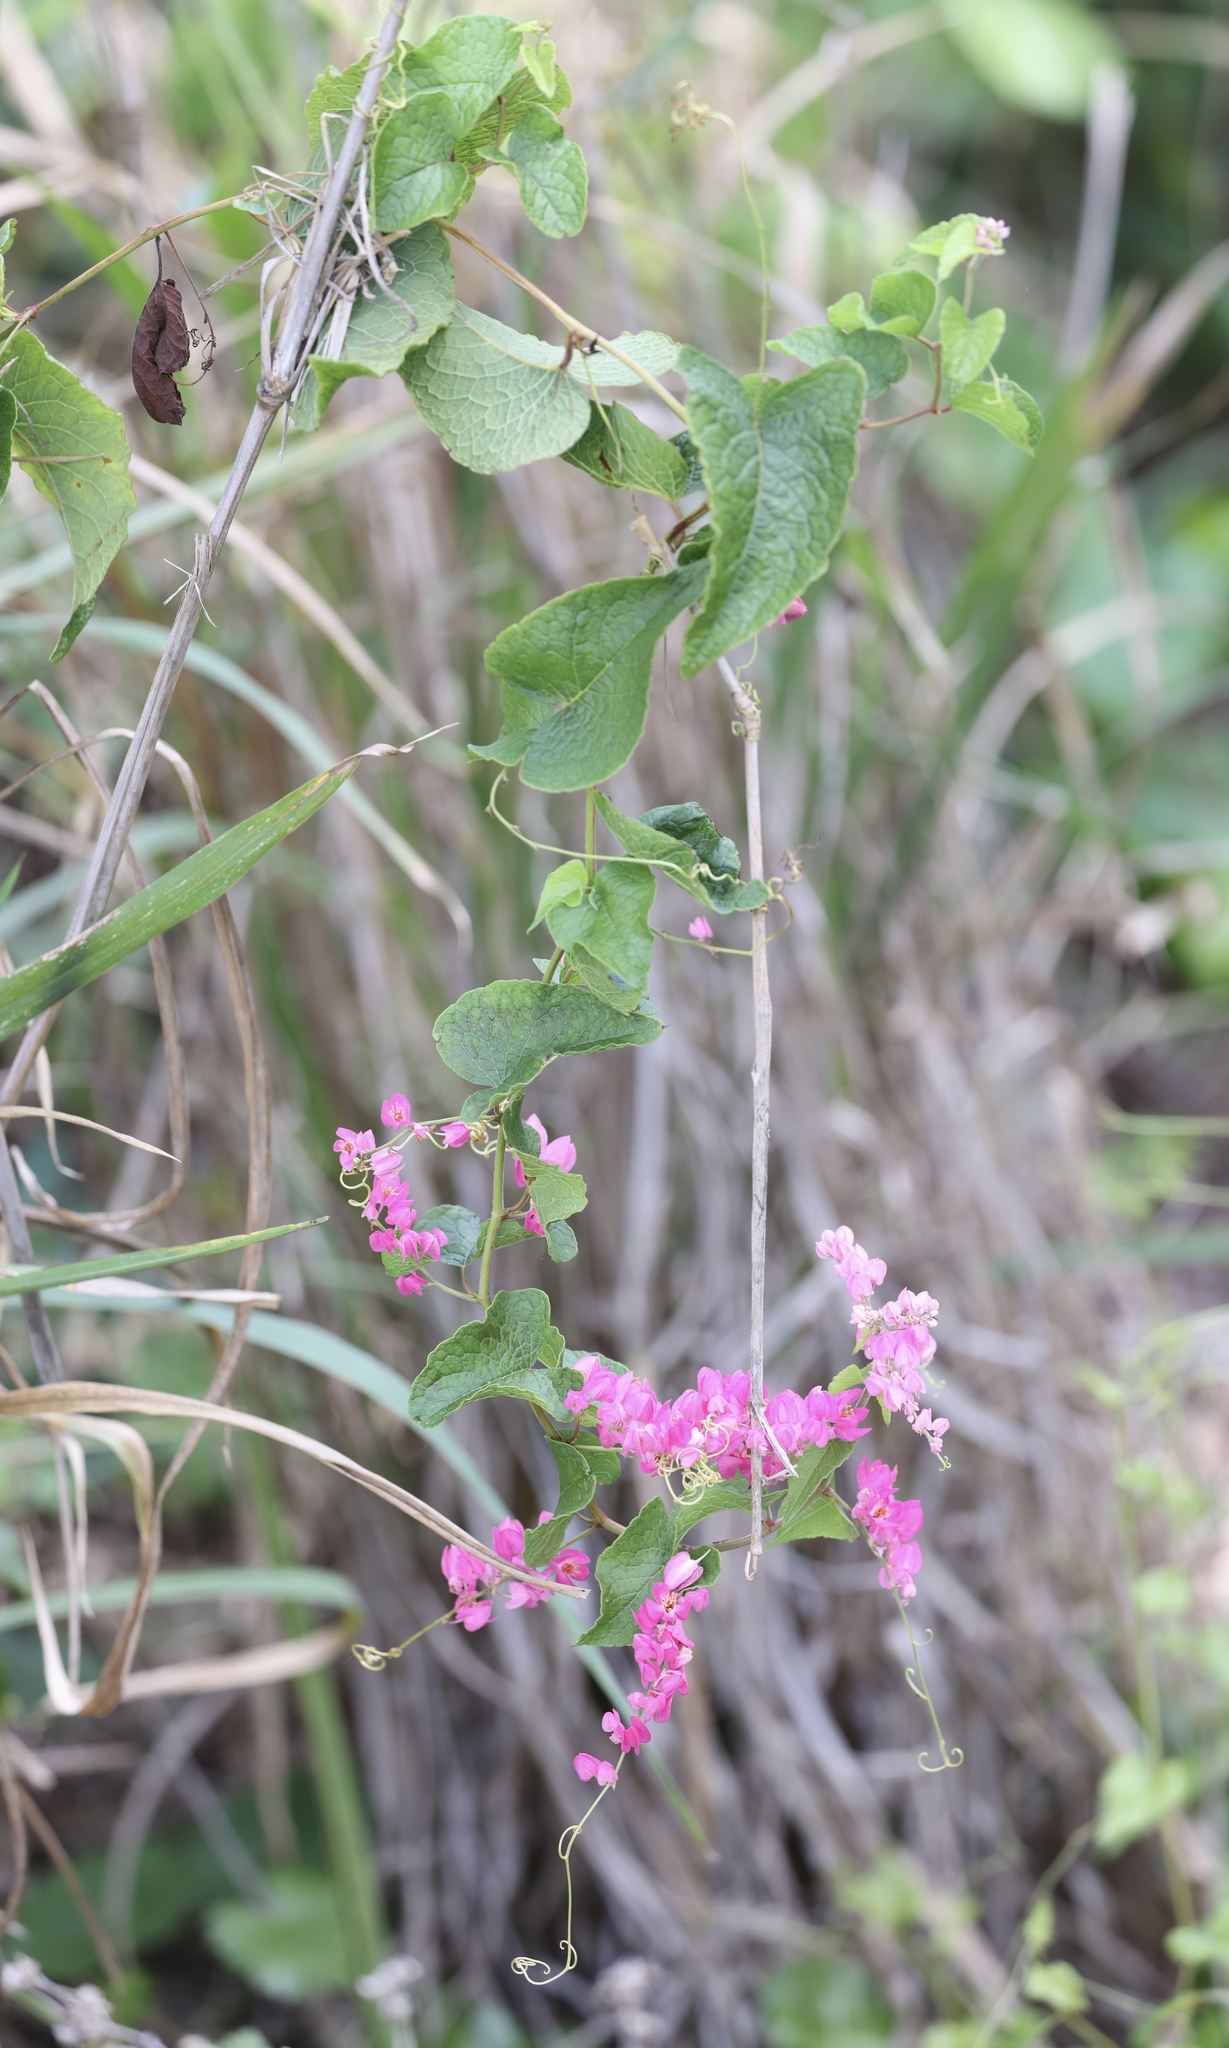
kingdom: Plantae
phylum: Tracheophyta
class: Magnoliopsida
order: Caryophyllales
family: Polygonaceae
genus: Antigonon
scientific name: Antigonon leptopus
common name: Coral vine
